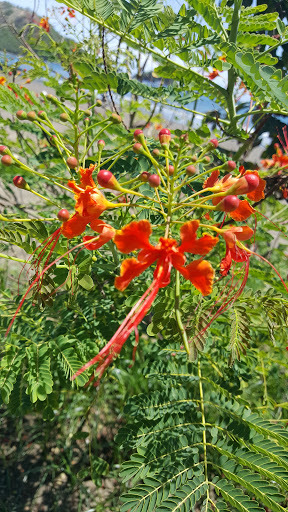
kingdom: Plantae
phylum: Tracheophyta
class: Magnoliopsida
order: Fabales
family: Fabaceae
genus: Caesalpinia
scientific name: Caesalpinia pulcherrima
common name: Pride-of-barbados
